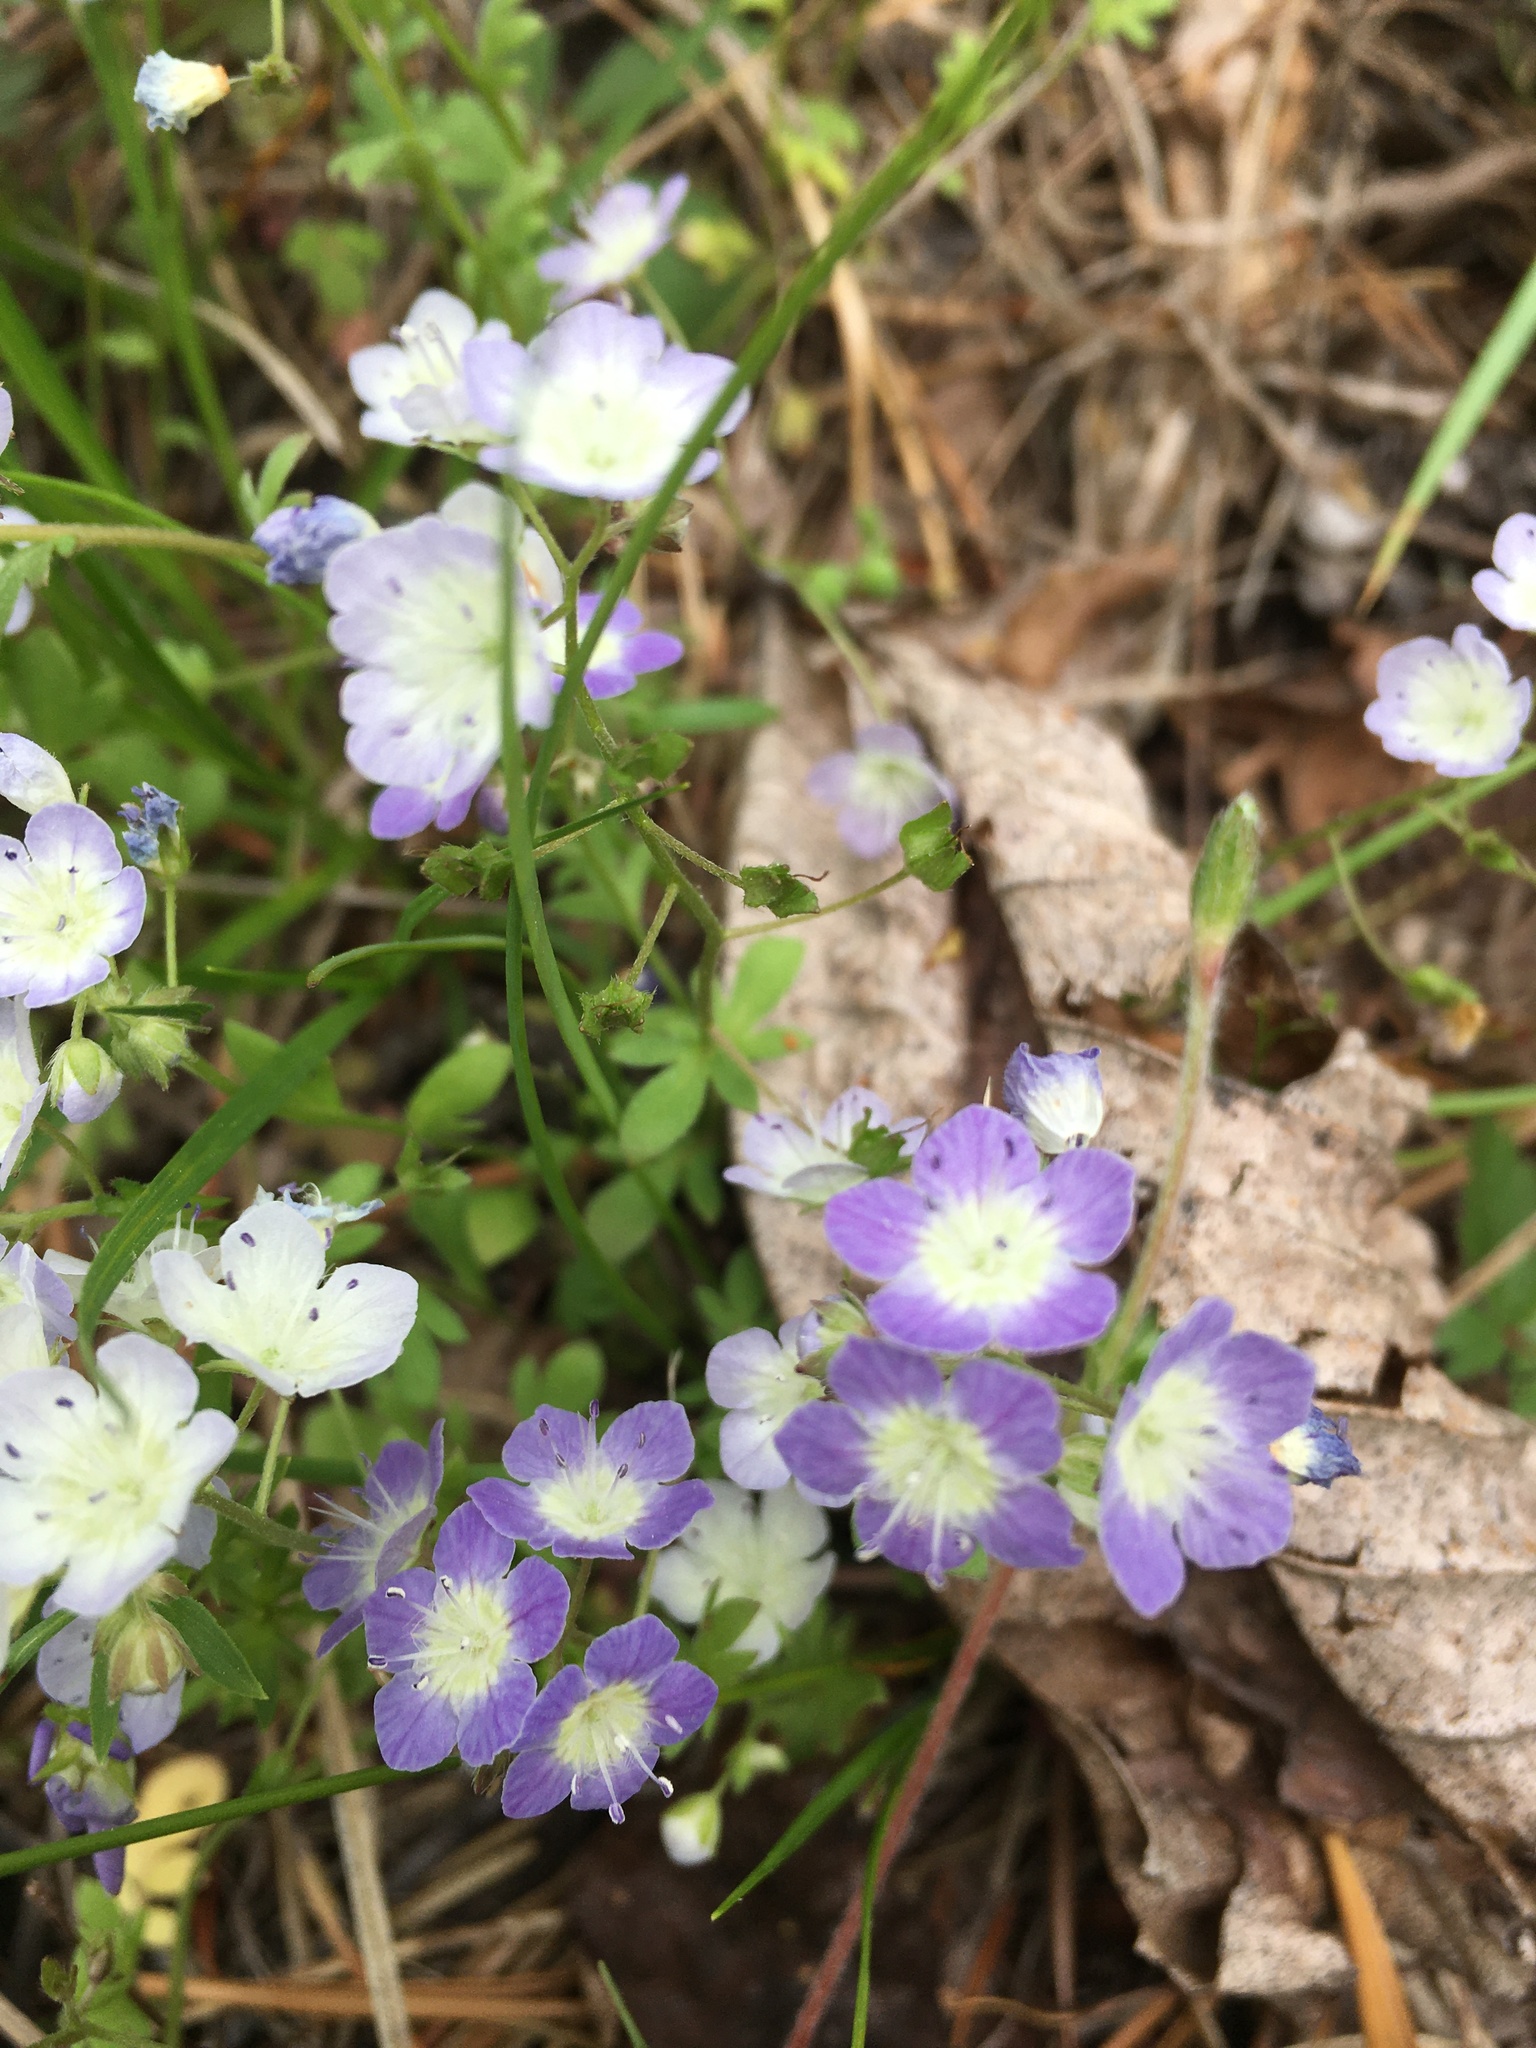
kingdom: Plantae
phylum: Tracheophyta
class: Magnoliopsida
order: Boraginales
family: Hydrophyllaceae
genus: Phacelia
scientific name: Phacelia dubia
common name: Appalachian phacelia
